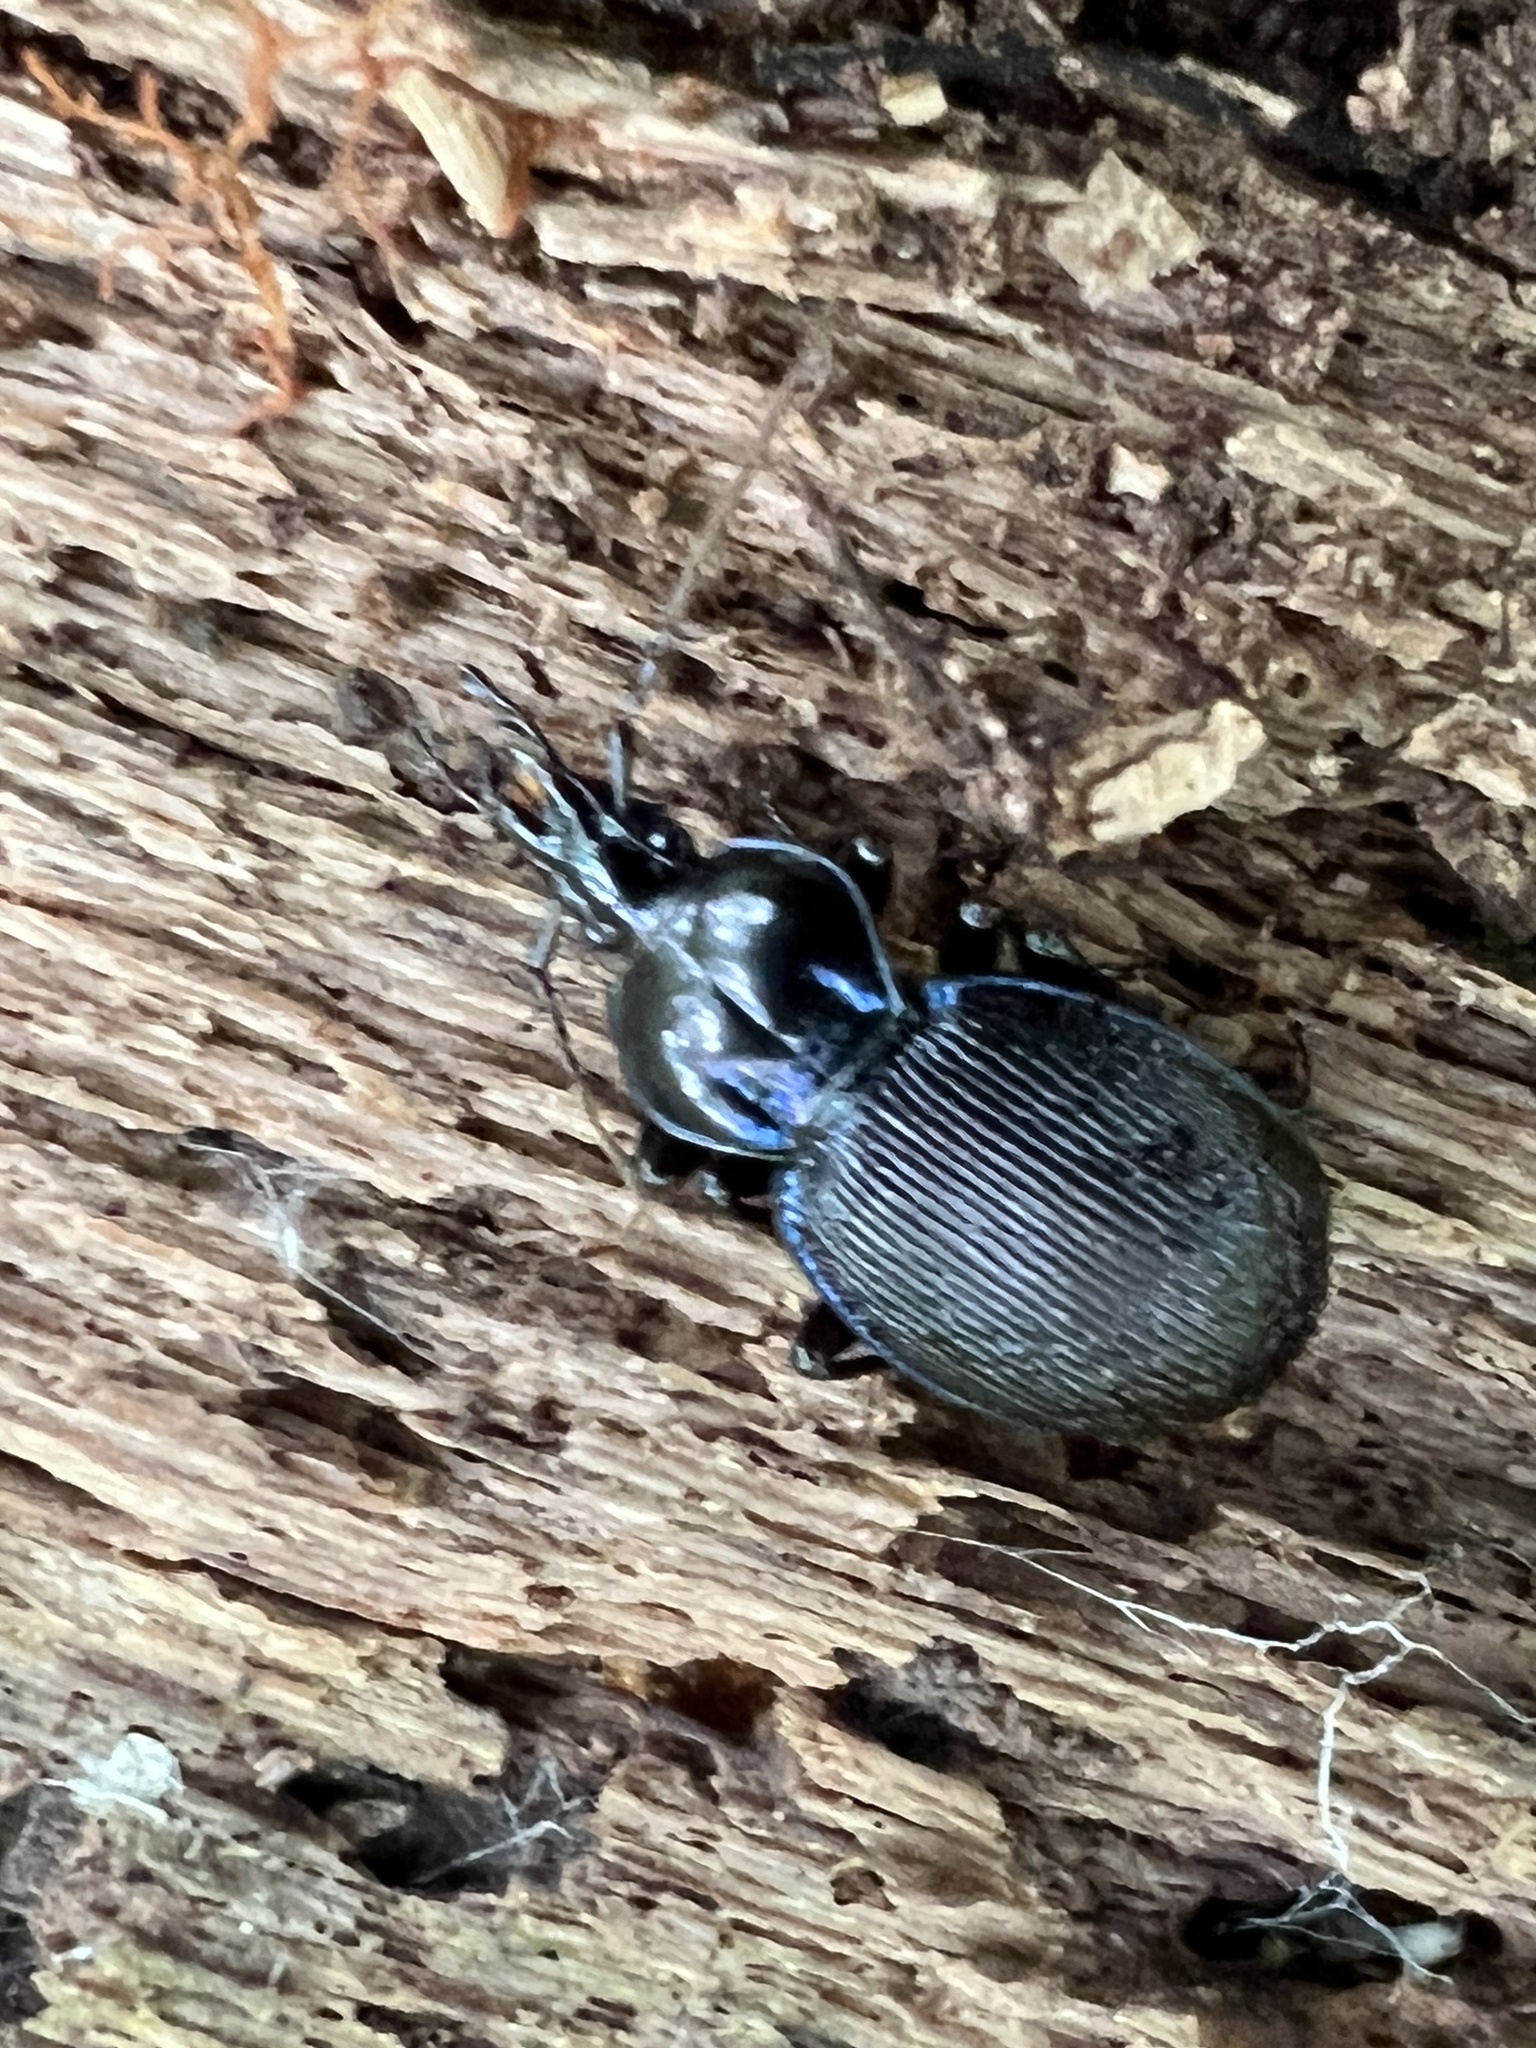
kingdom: Animalia
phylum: Arthropoda
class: Insecta
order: Coleoptera
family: Carabidae
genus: Sphaeroderus
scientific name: Sphaeroderus stenostomus
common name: Small snail-eating ground beetle
